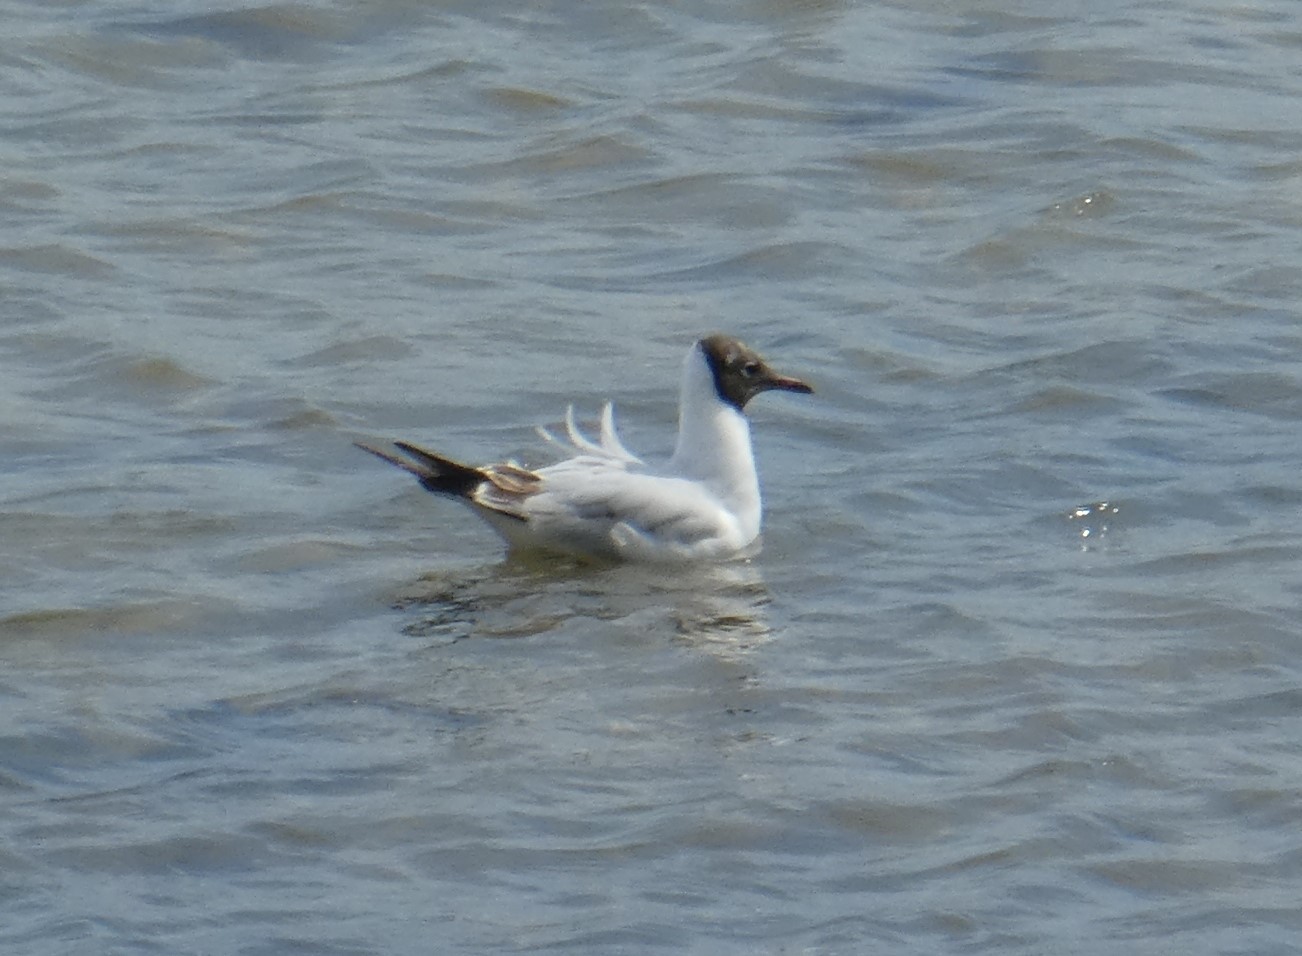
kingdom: Animalia
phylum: Chordata
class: Aves
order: Charadriiformes
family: Laridae
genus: Chroicocephalus
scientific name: Chroicocephalus ridibundus
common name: Black-headed gull
